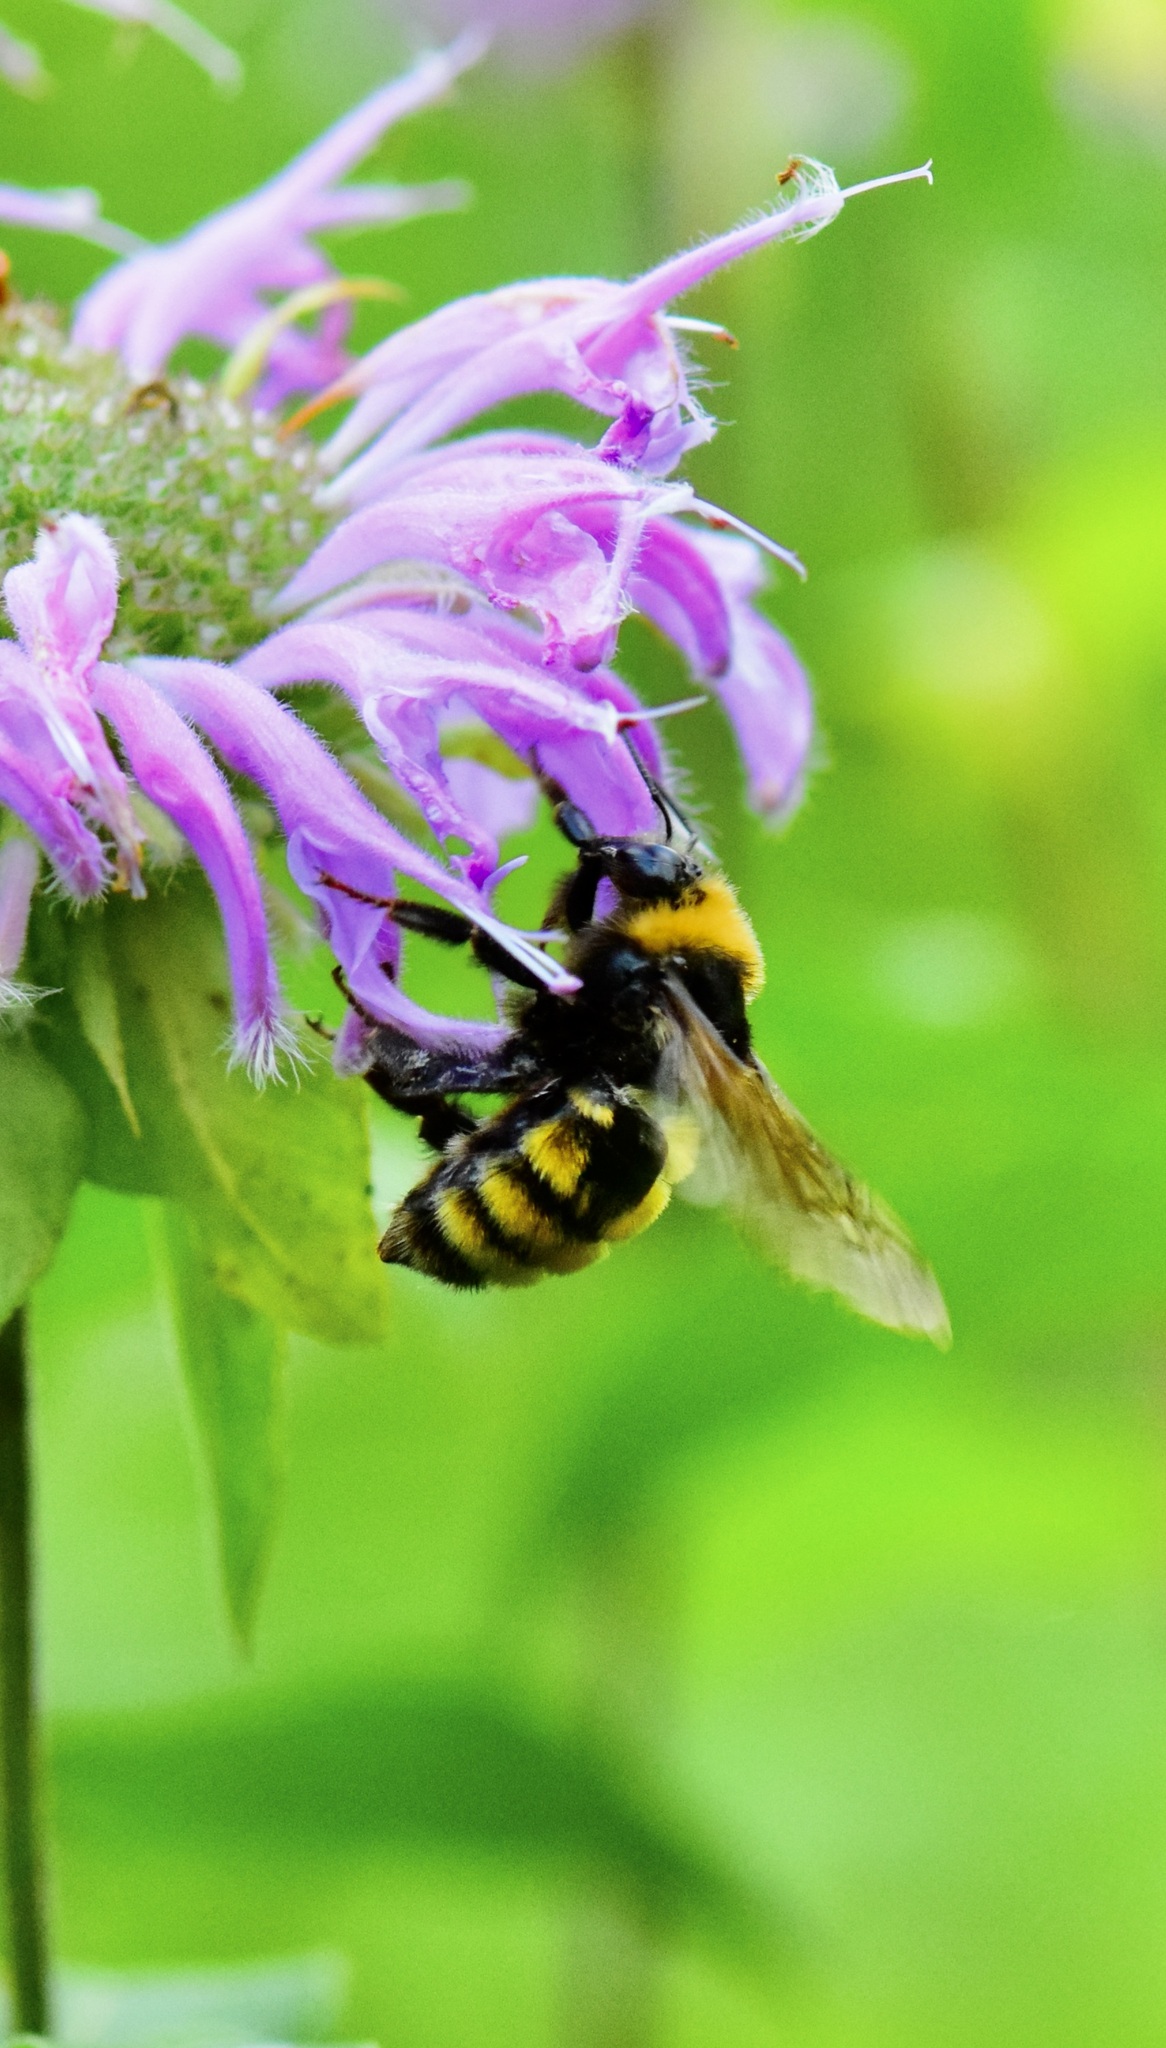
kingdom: Animalia
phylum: Arthropoda
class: Insecta
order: Hymenoptera
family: Apidae
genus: Bombus
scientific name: Bombus borealis
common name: Northern amber bumble bee
